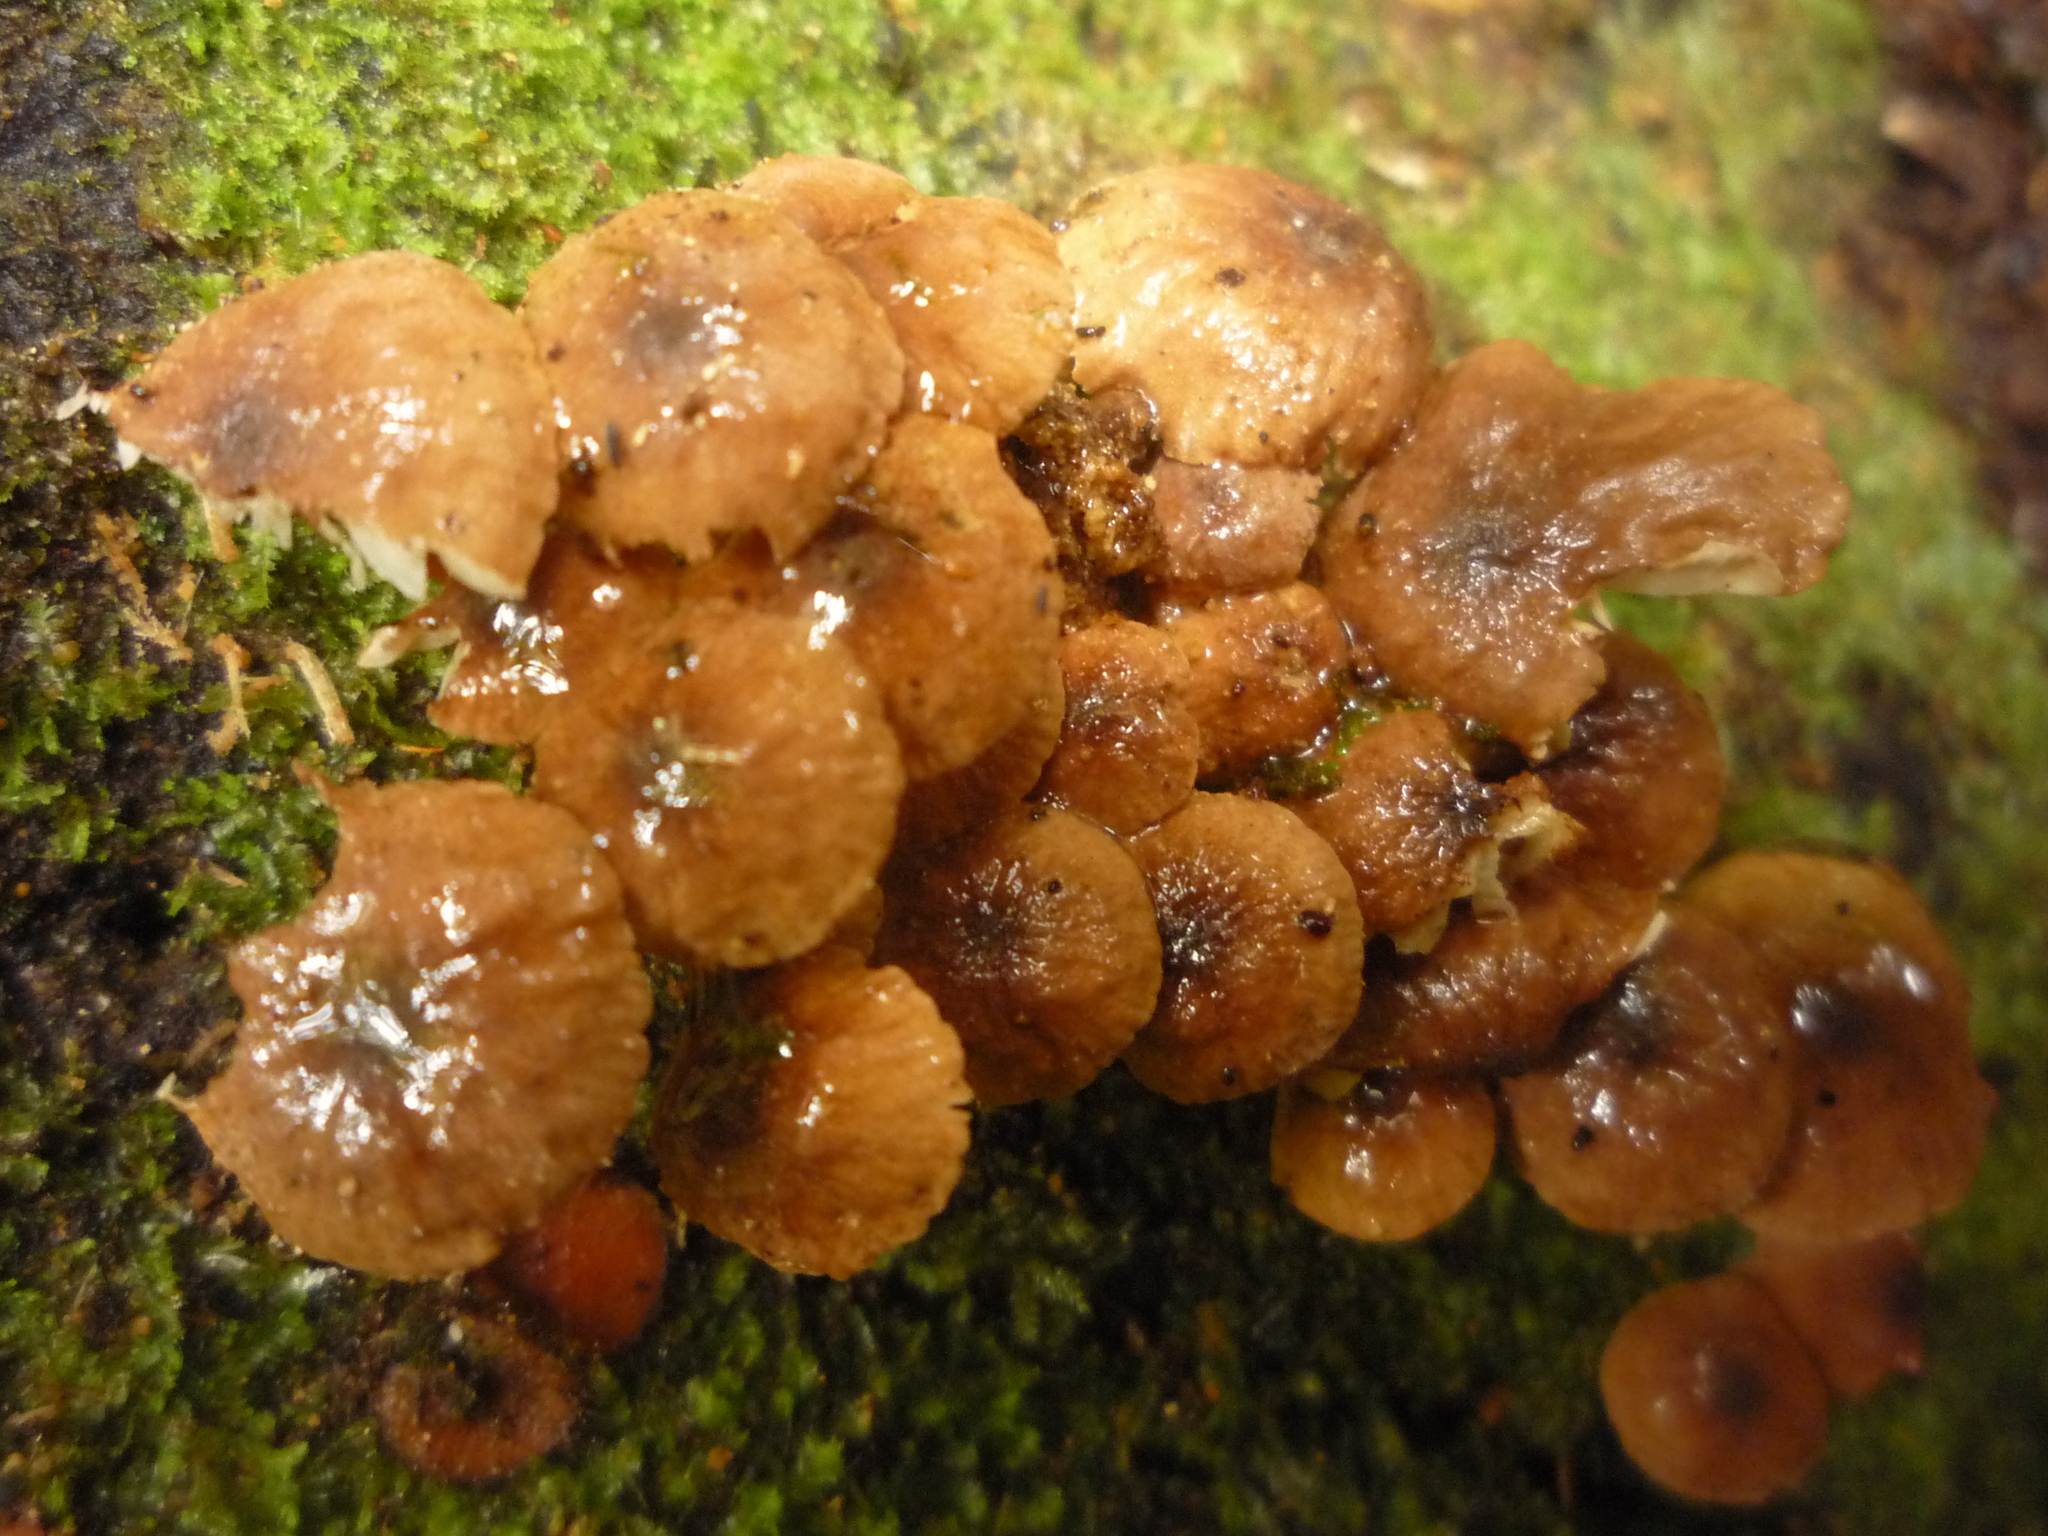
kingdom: Fungi
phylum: Basidiomycota
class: Agaricomycetes
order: Agaricales
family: Omphalotaceae
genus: Mycetinis
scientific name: Mycetinis curraniae
